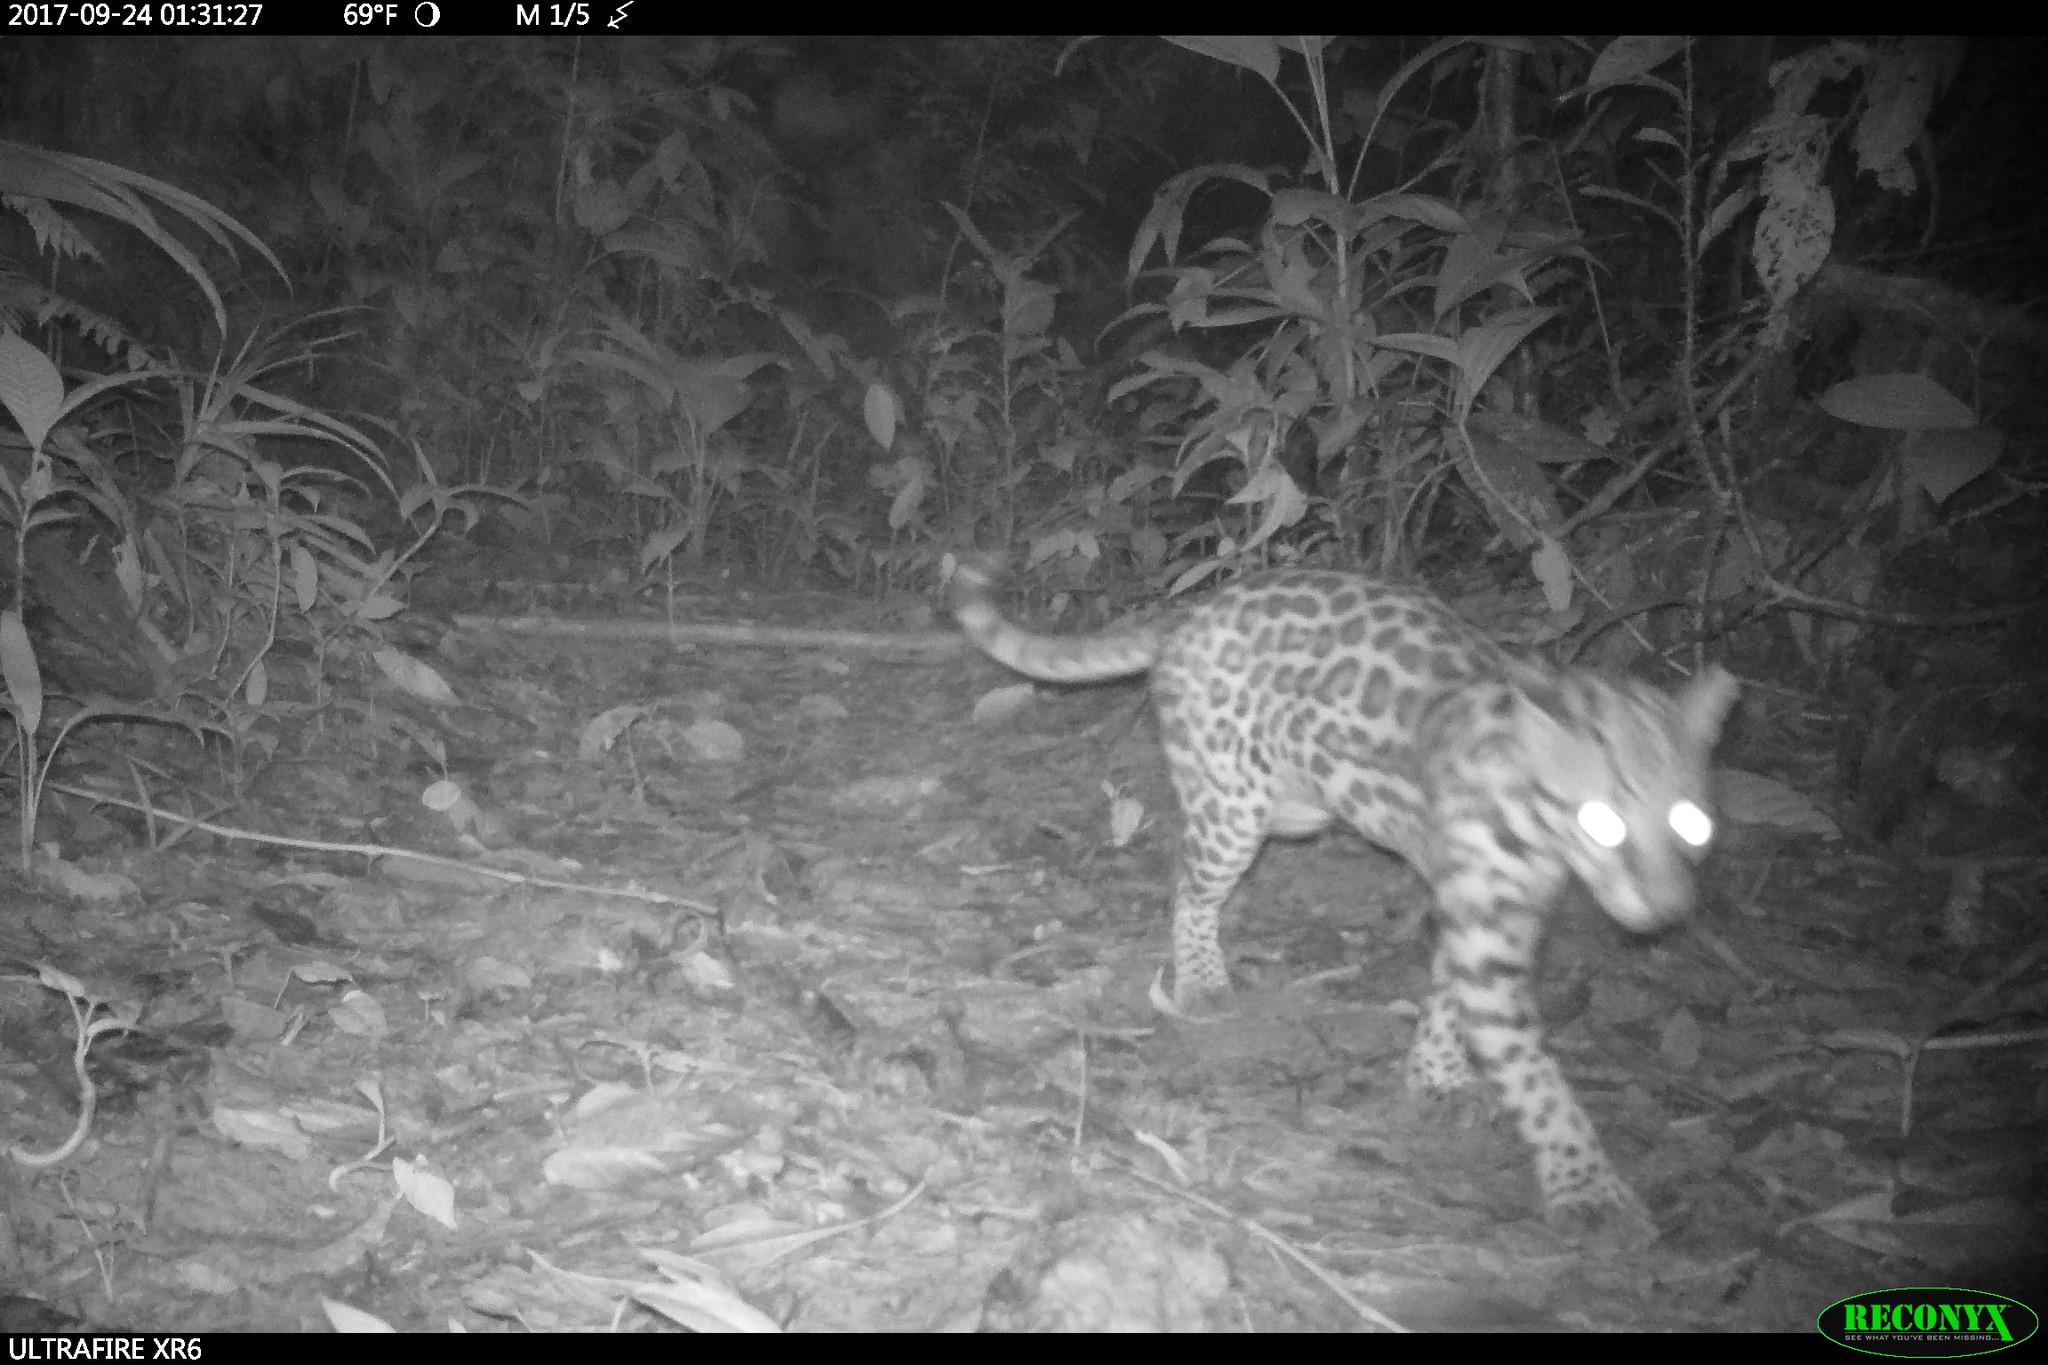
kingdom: Animalia
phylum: Chordata
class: Mammalia
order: Carnivora
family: Felidae
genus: Leopardus
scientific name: Leopardus pardalis
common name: Ocelot
